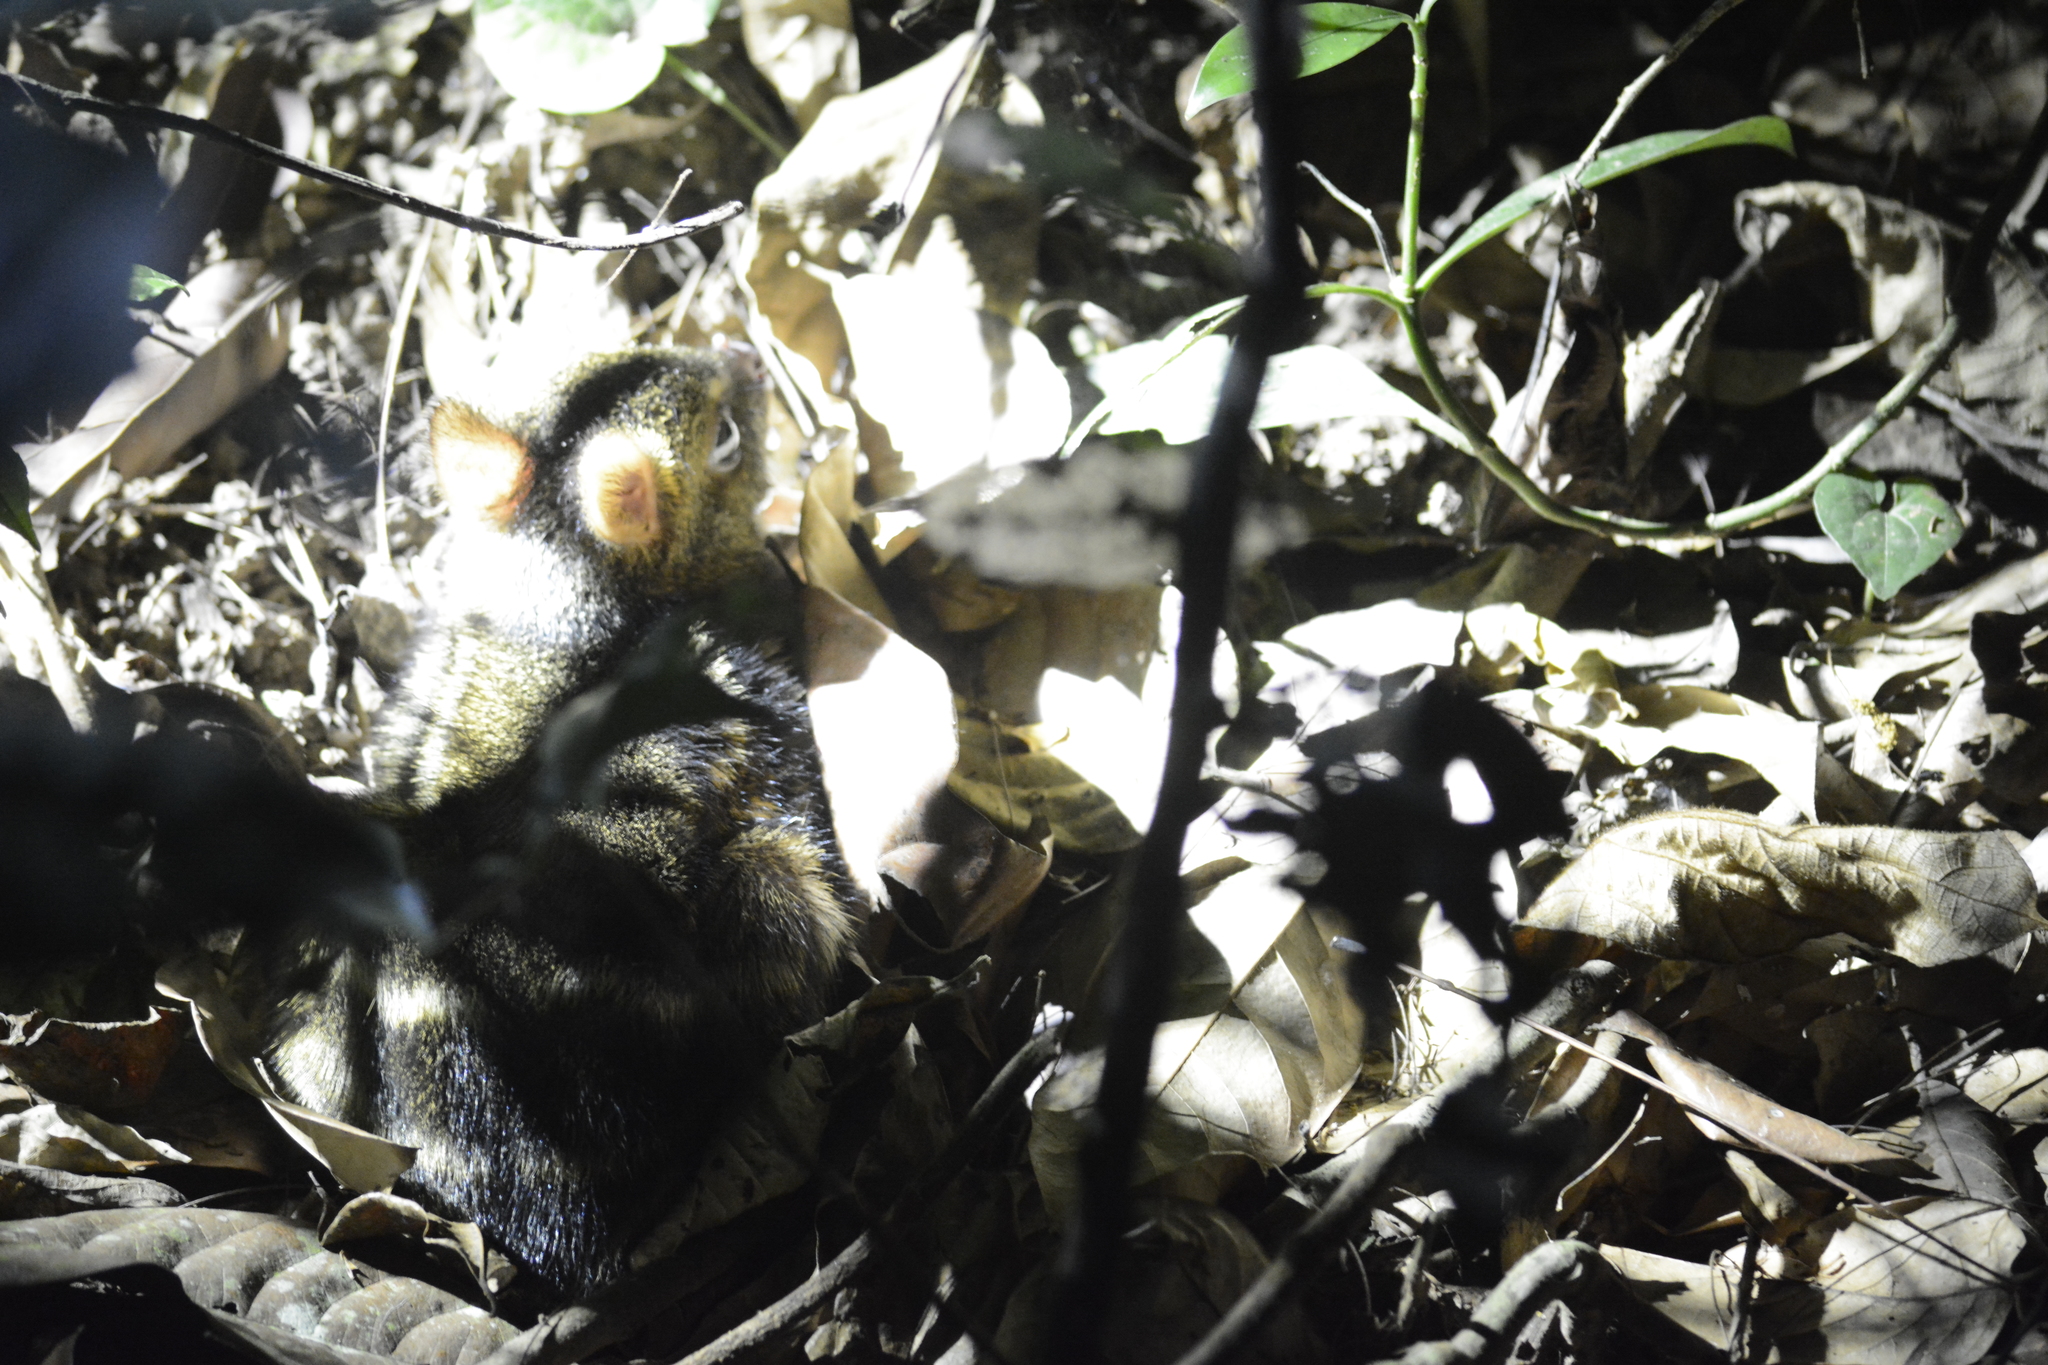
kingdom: Animalia
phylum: Chordata
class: Mammalia
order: Artiodactyla
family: Tragulidae
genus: Moschiola
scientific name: Moschiola indica
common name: Indian chevrotain
